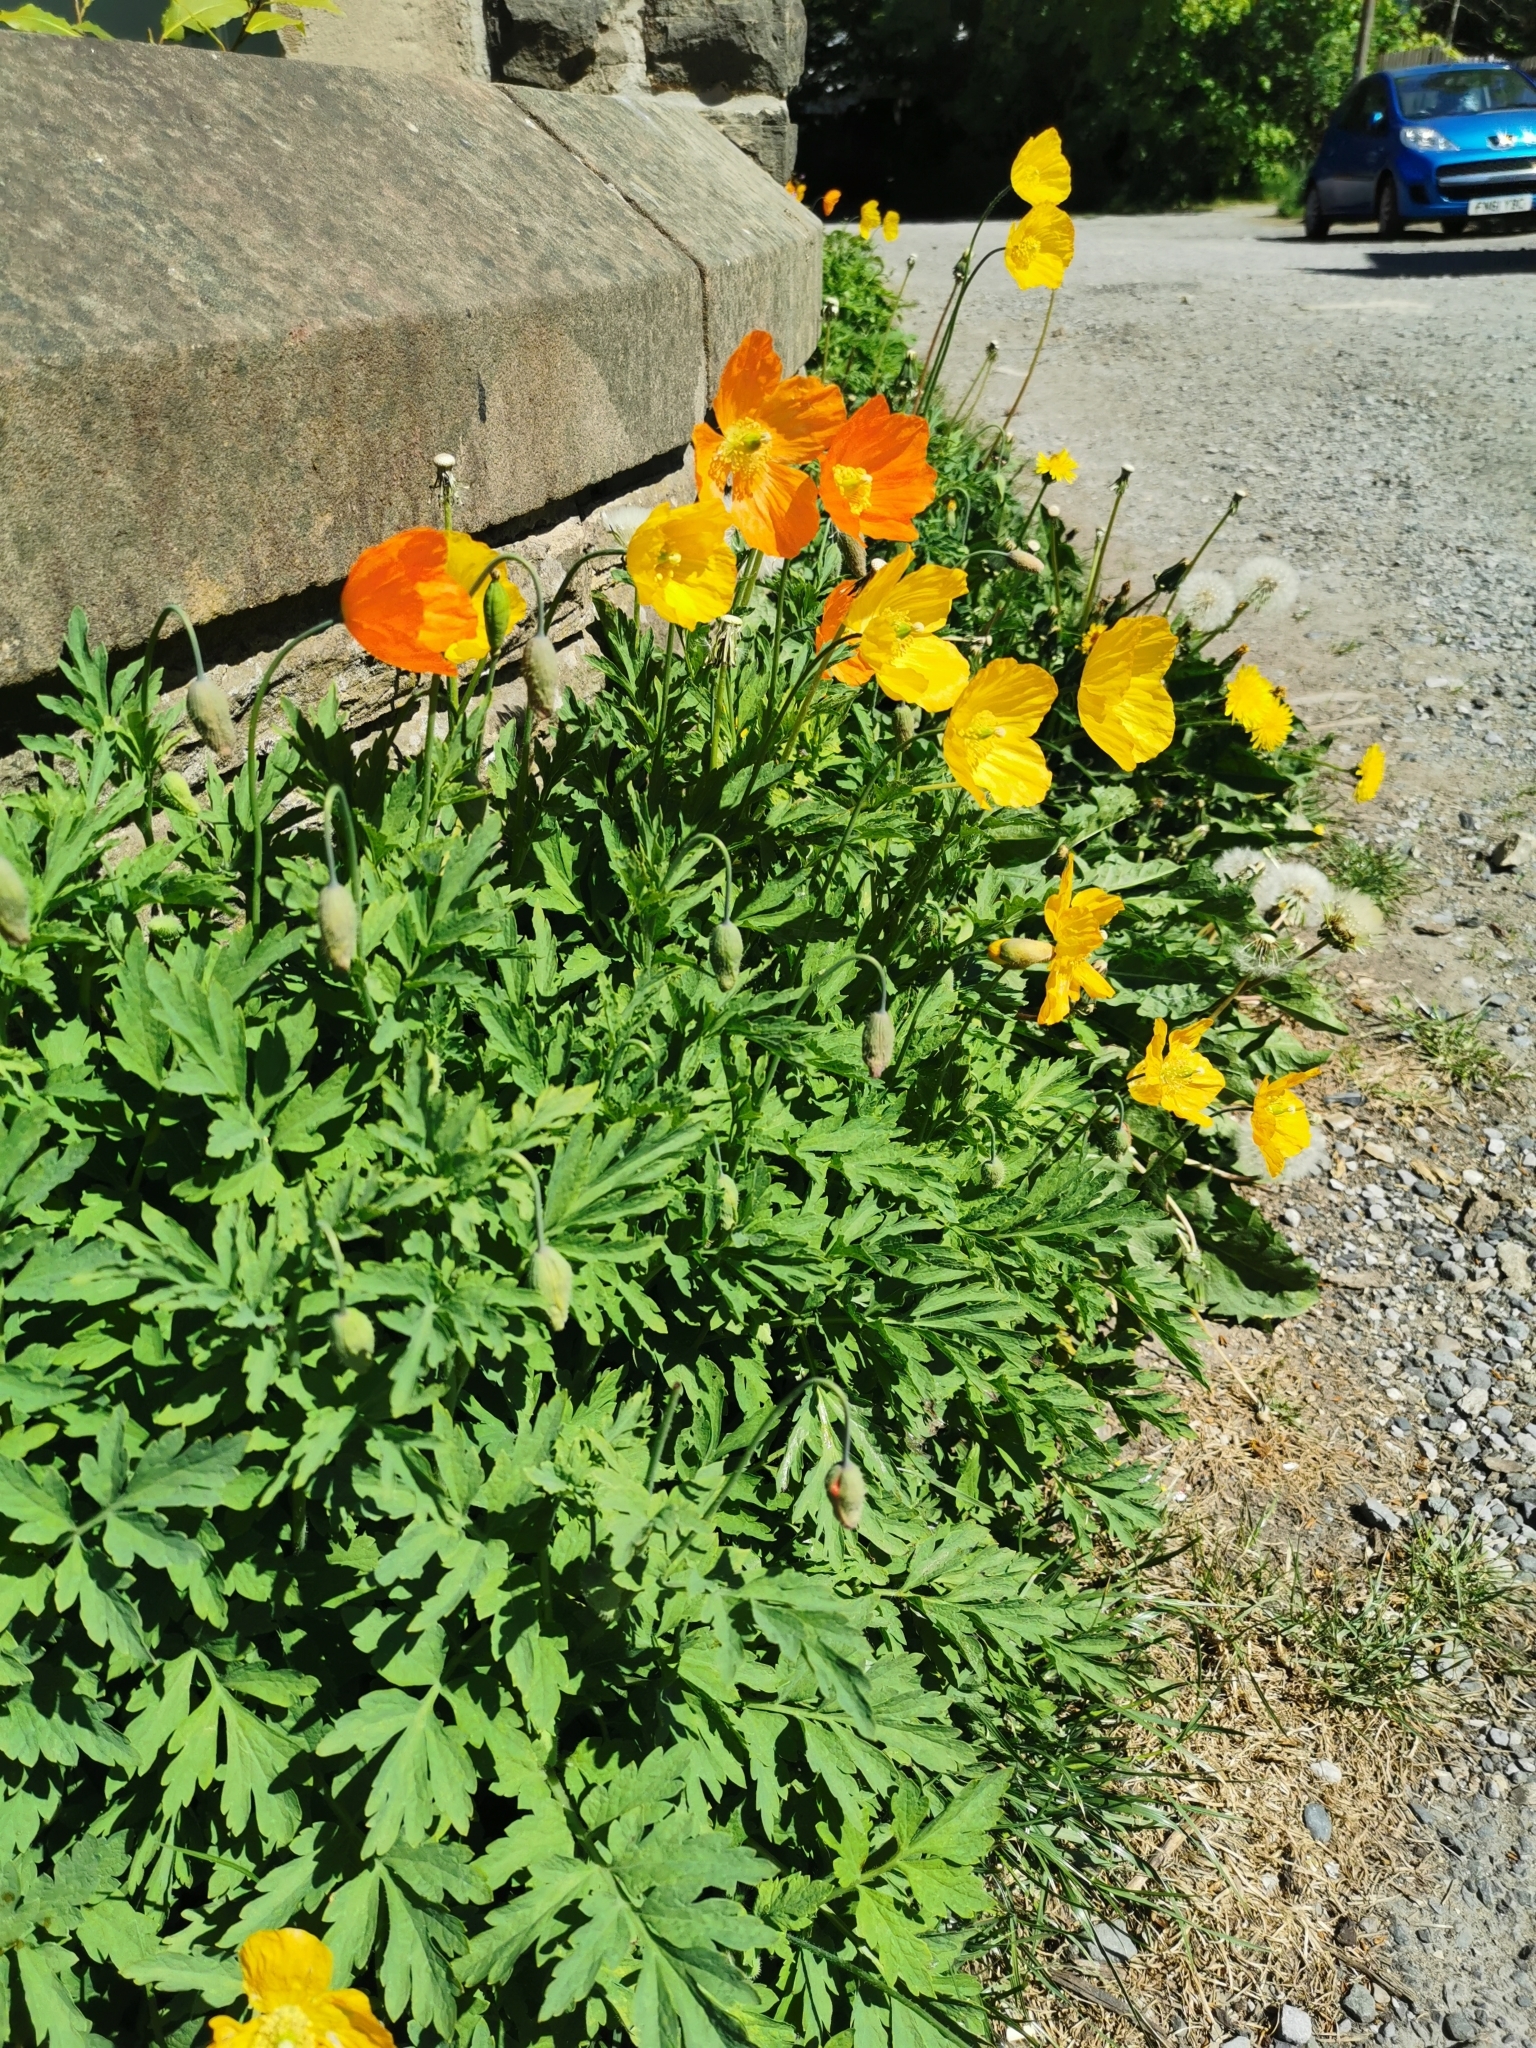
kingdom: Plantae
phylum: Tracheophyta
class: Magnoliopsida
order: Ranunculales
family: Papaveraceae
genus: Papaver
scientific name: Papaver cambricum
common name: Poppy
